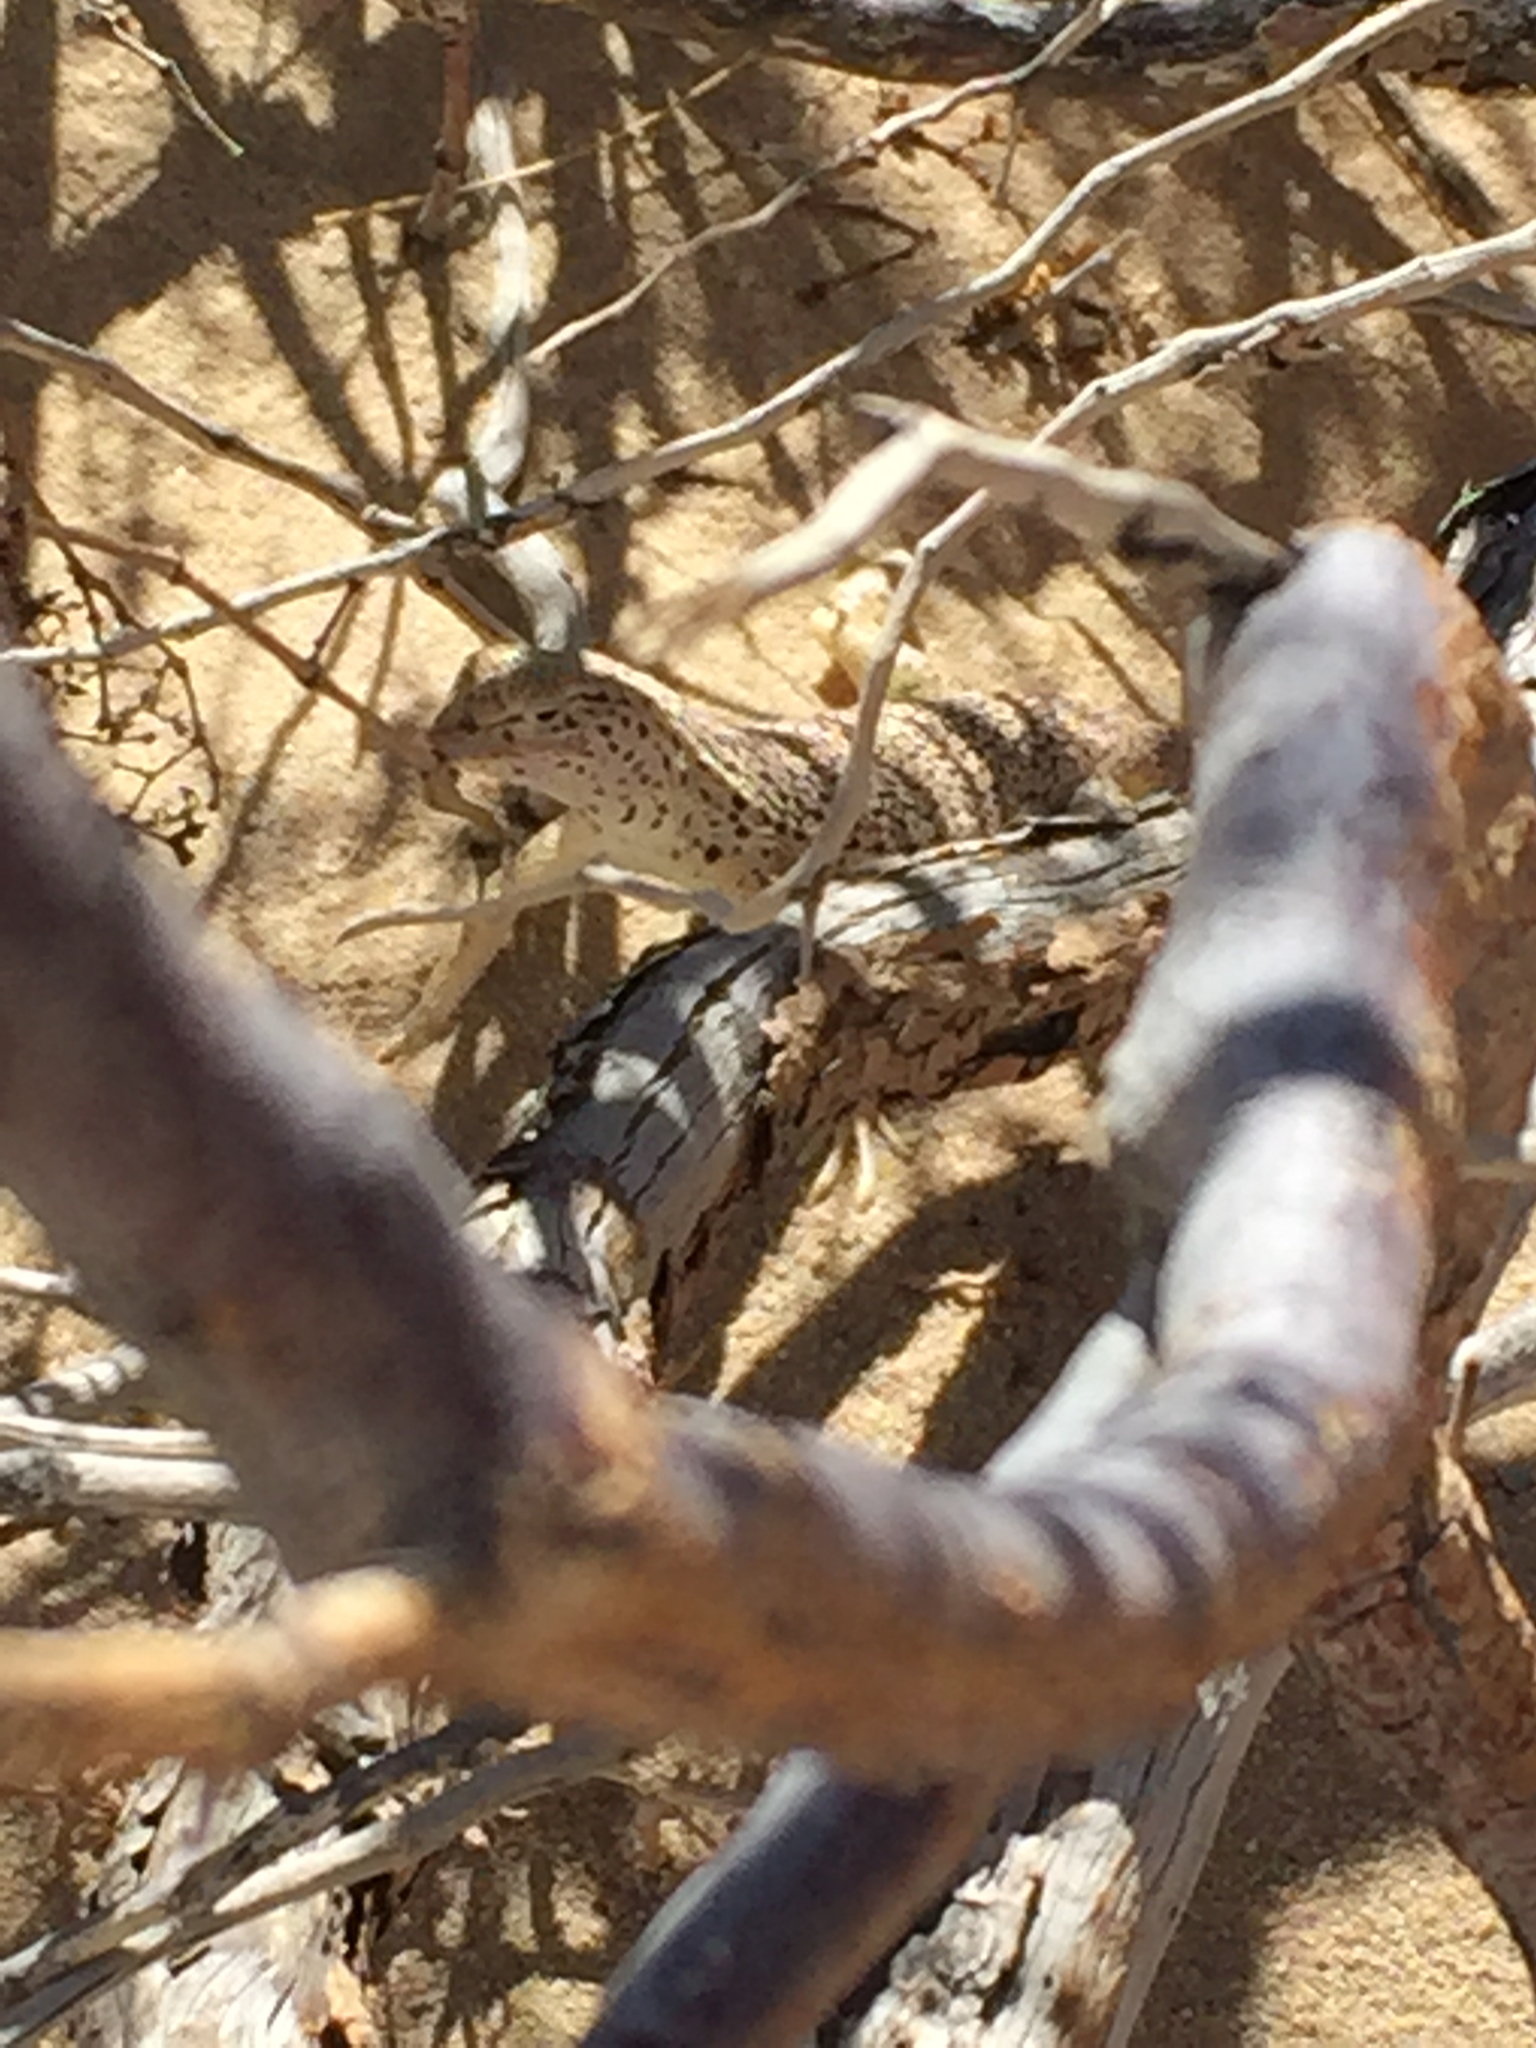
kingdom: Animalia
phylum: Chordata
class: Squamata
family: Phrynosomatidae
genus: Uma
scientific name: Uma scoparia
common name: Mojave fringe-toed lizard
